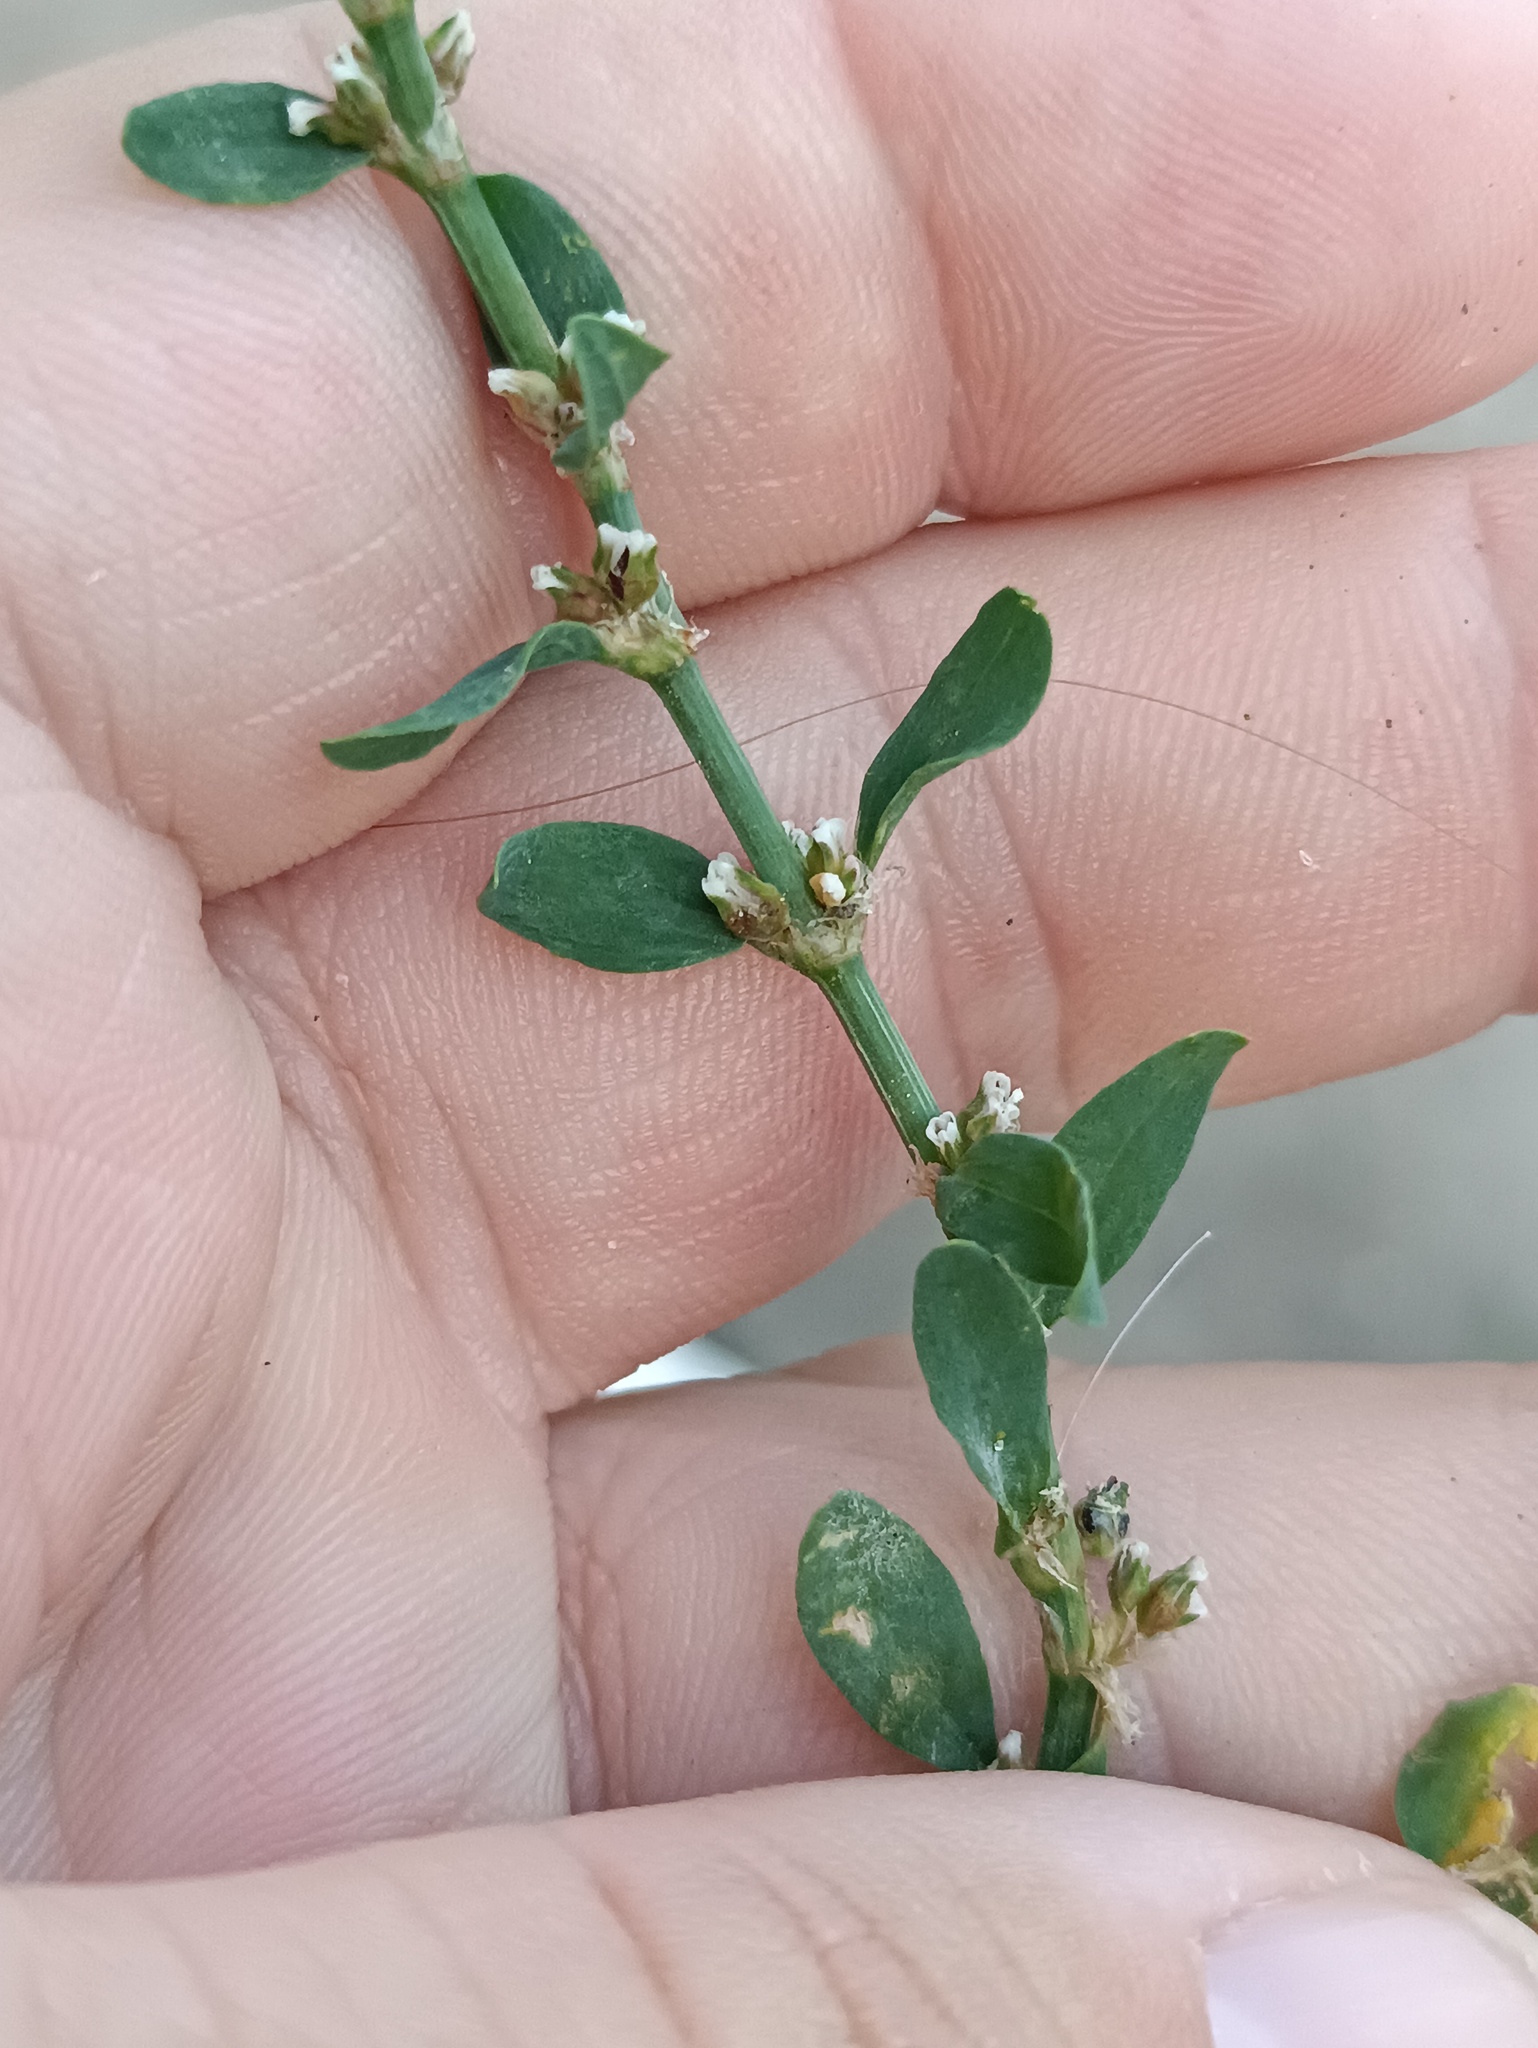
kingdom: Plantae
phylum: Tracheophyta
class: Magnoliopsida
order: Caryophyllales
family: Polygonaceae
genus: Polygonum
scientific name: Polygonum
